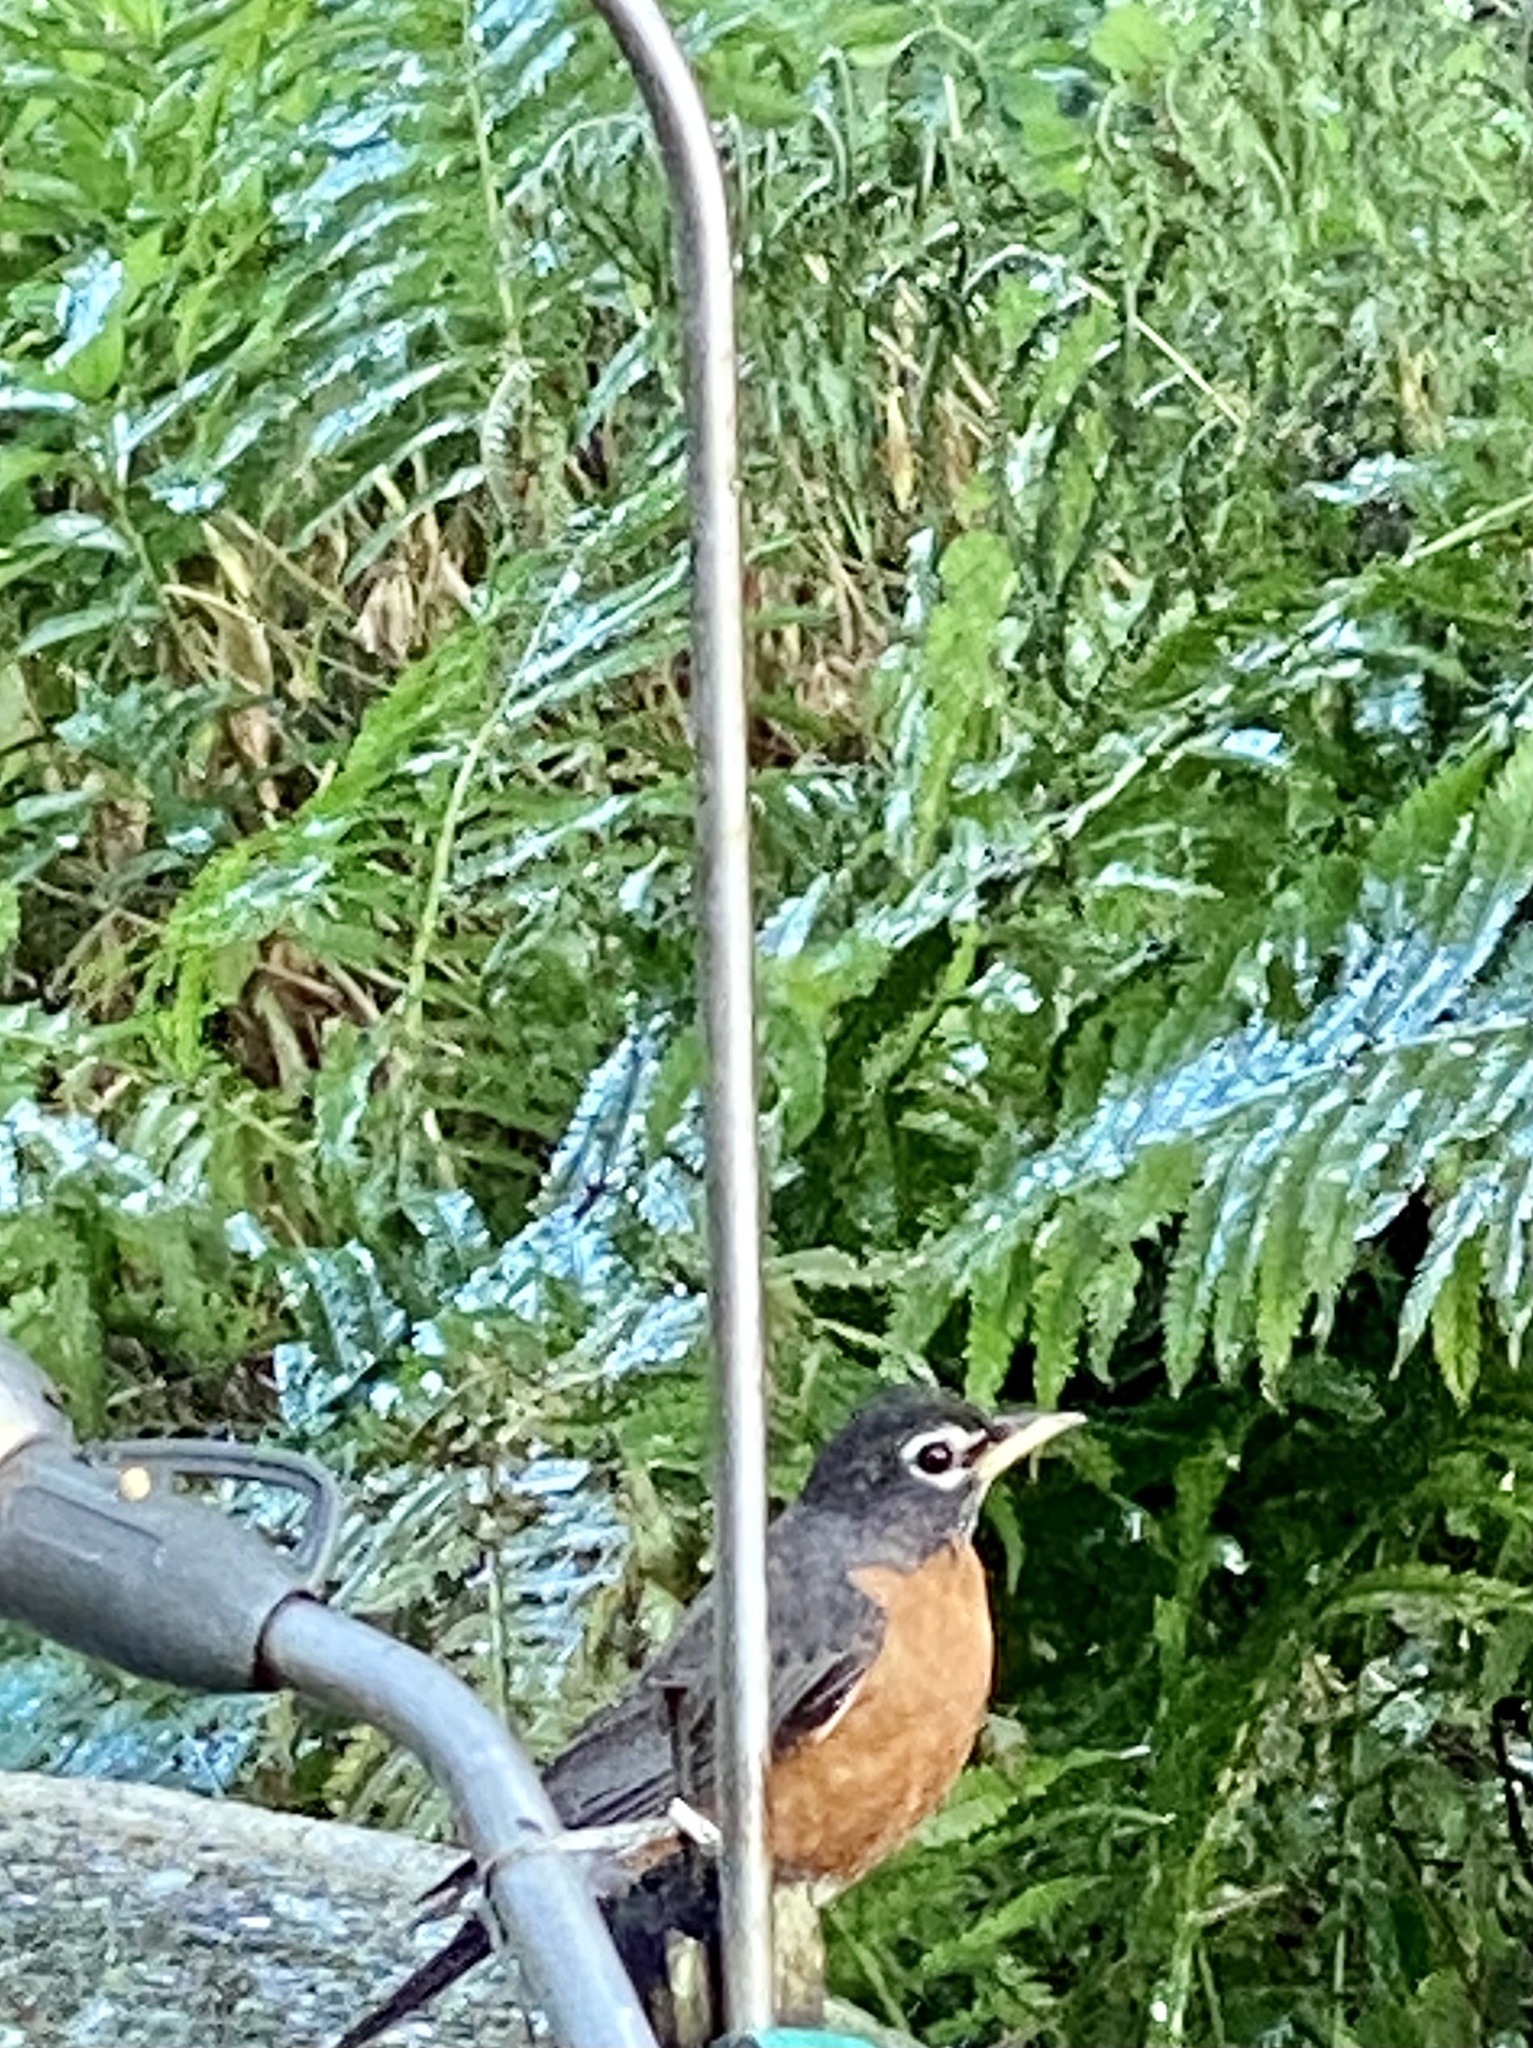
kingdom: Animalia
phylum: Chordata
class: Aves
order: Passeriformes
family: Turdidae
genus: Turdus
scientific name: Turdus migratorius
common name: American robin
